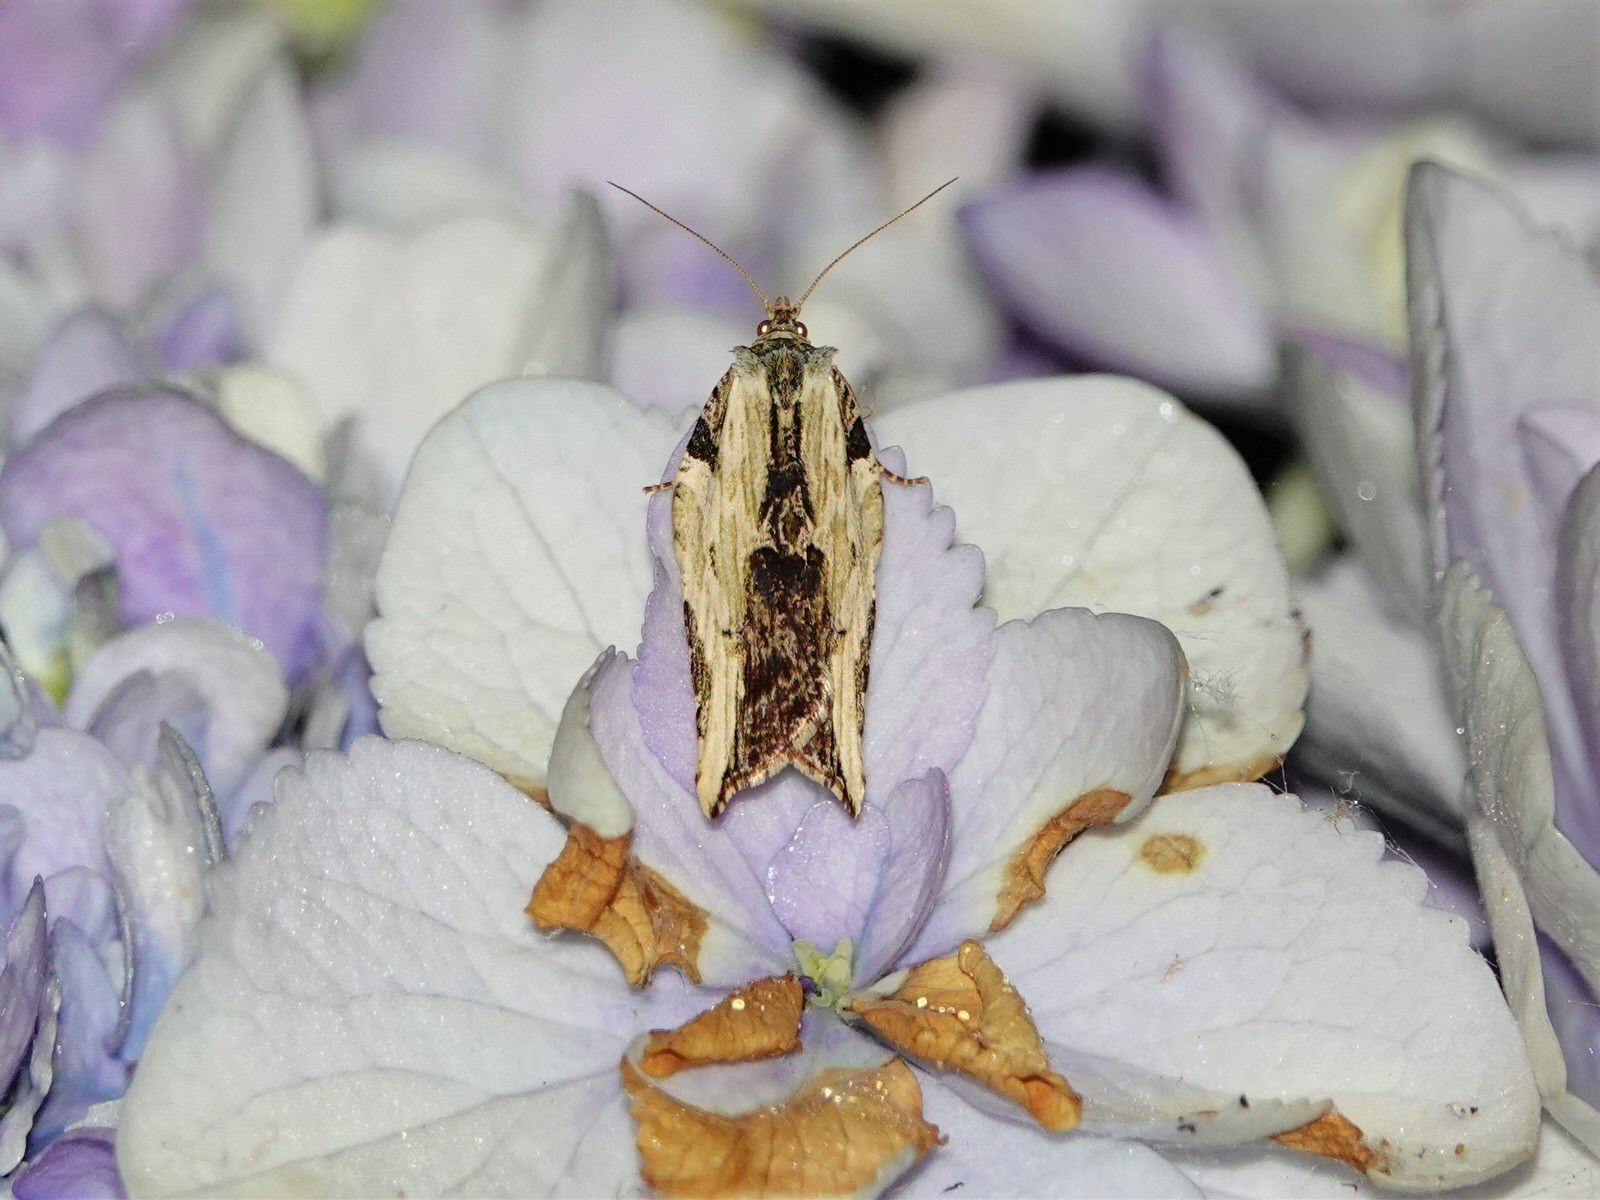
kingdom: Animalia
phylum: Arthropoda
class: Insecta
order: Lepidoptera
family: Tortricidae
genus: Epalxiphora
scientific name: Epalxiphora axenana
